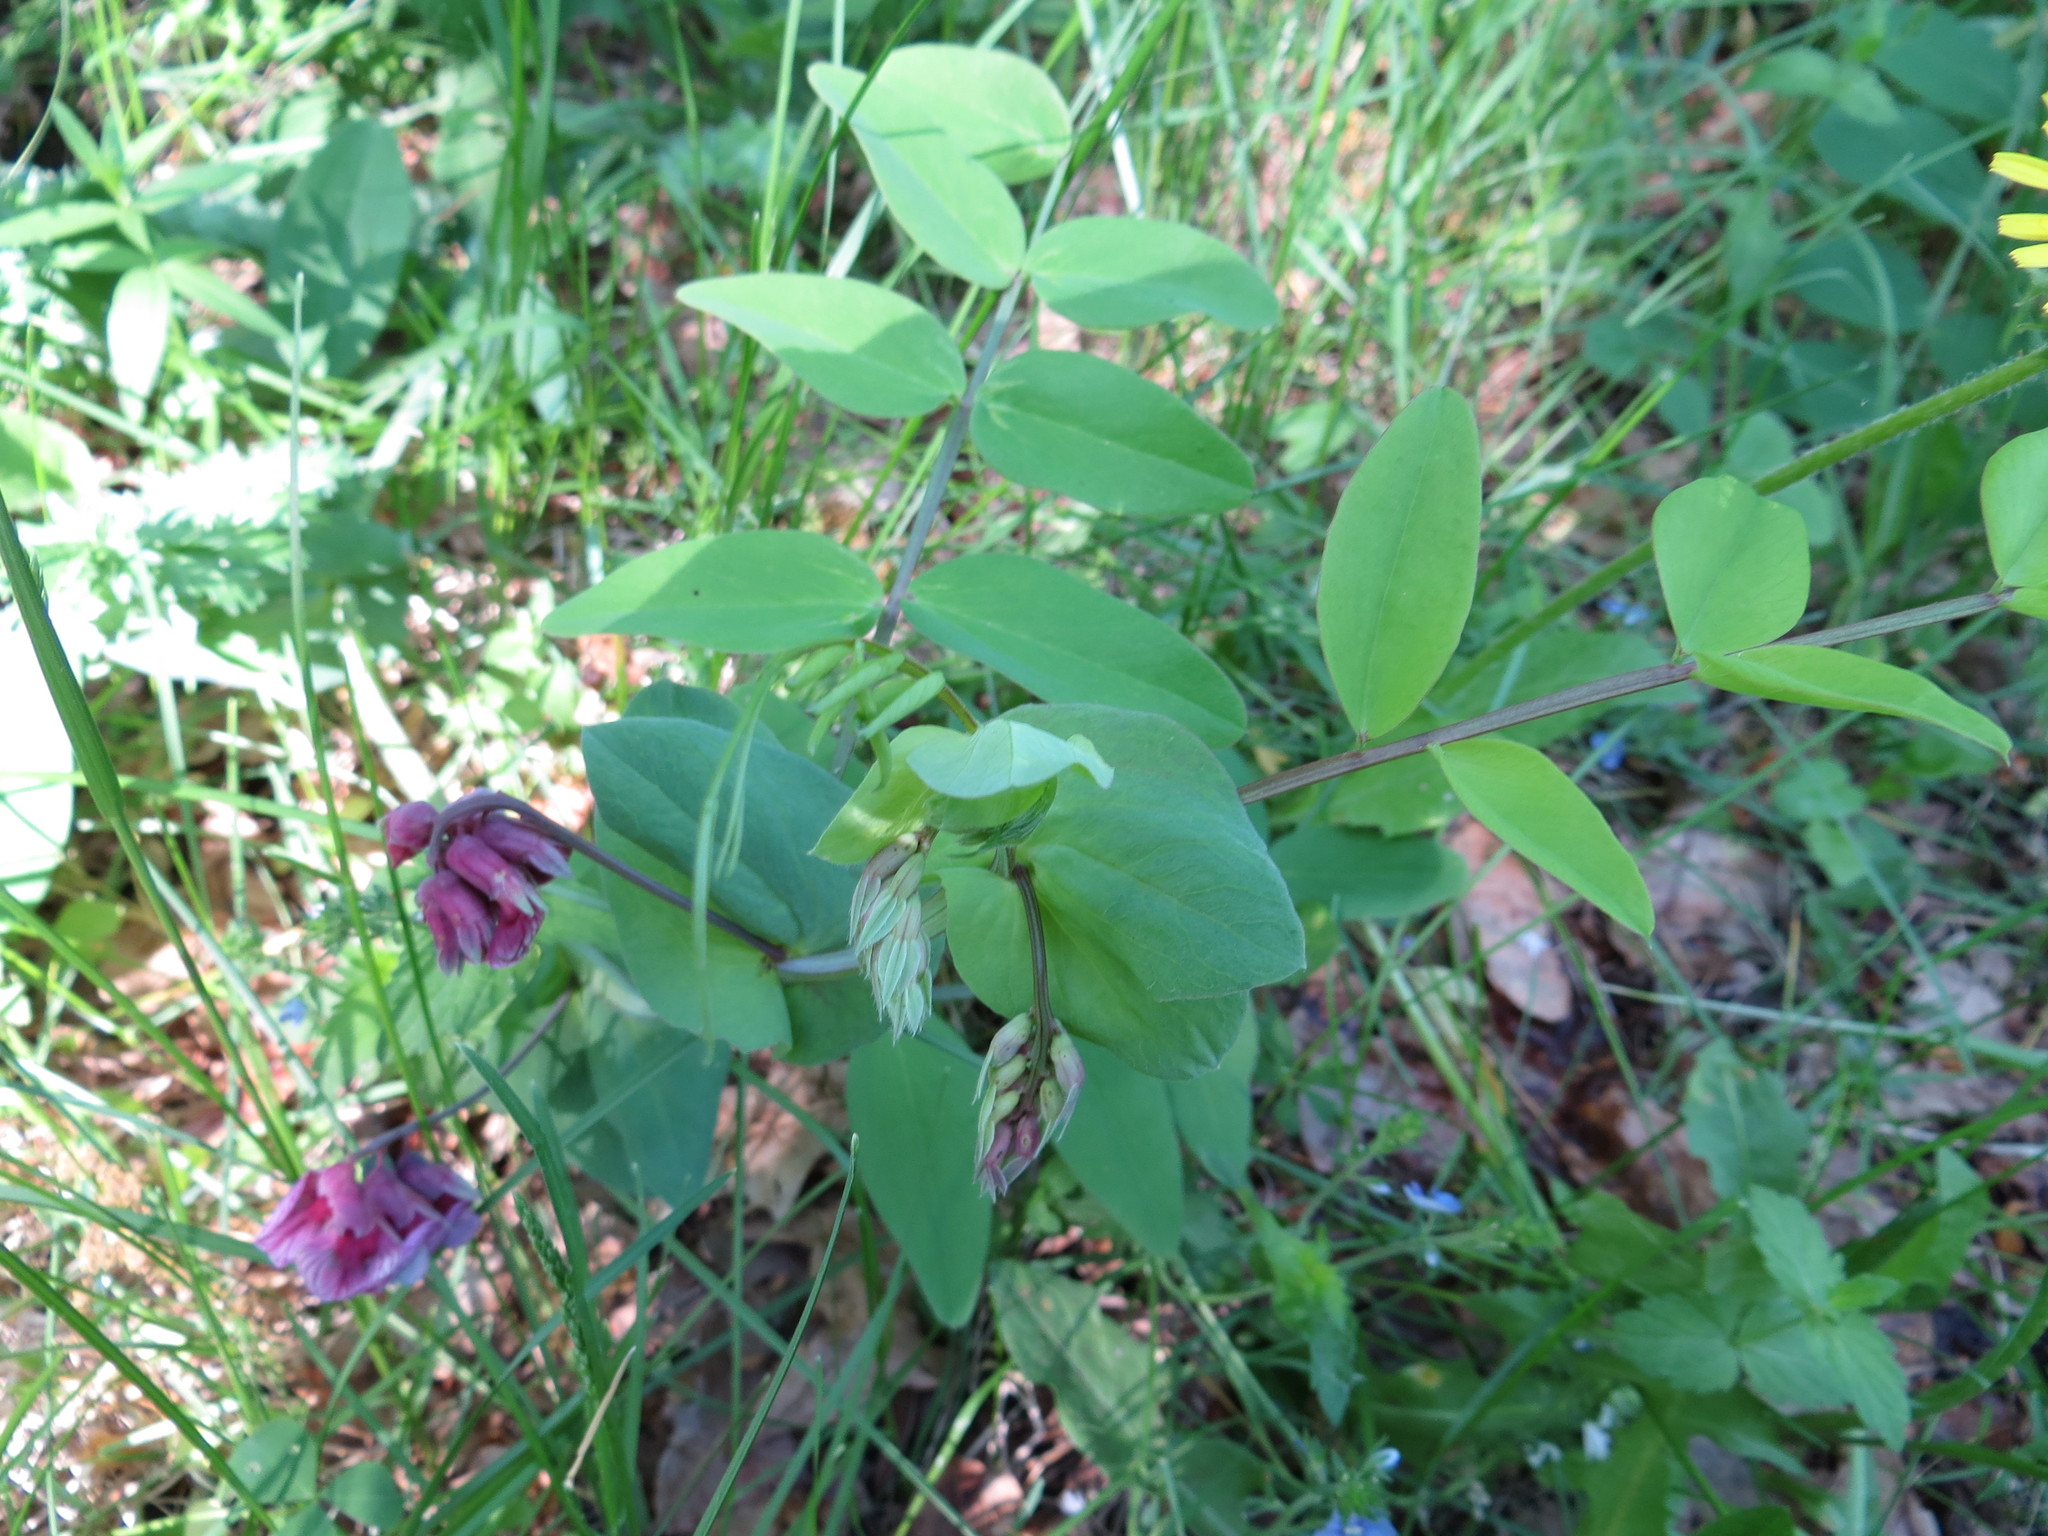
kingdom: Plantae
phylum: Tracheophyta
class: Magnoliopsida
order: Fabales
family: Fabaceae
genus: Lathyrus
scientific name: Lathyrus pisiformis
